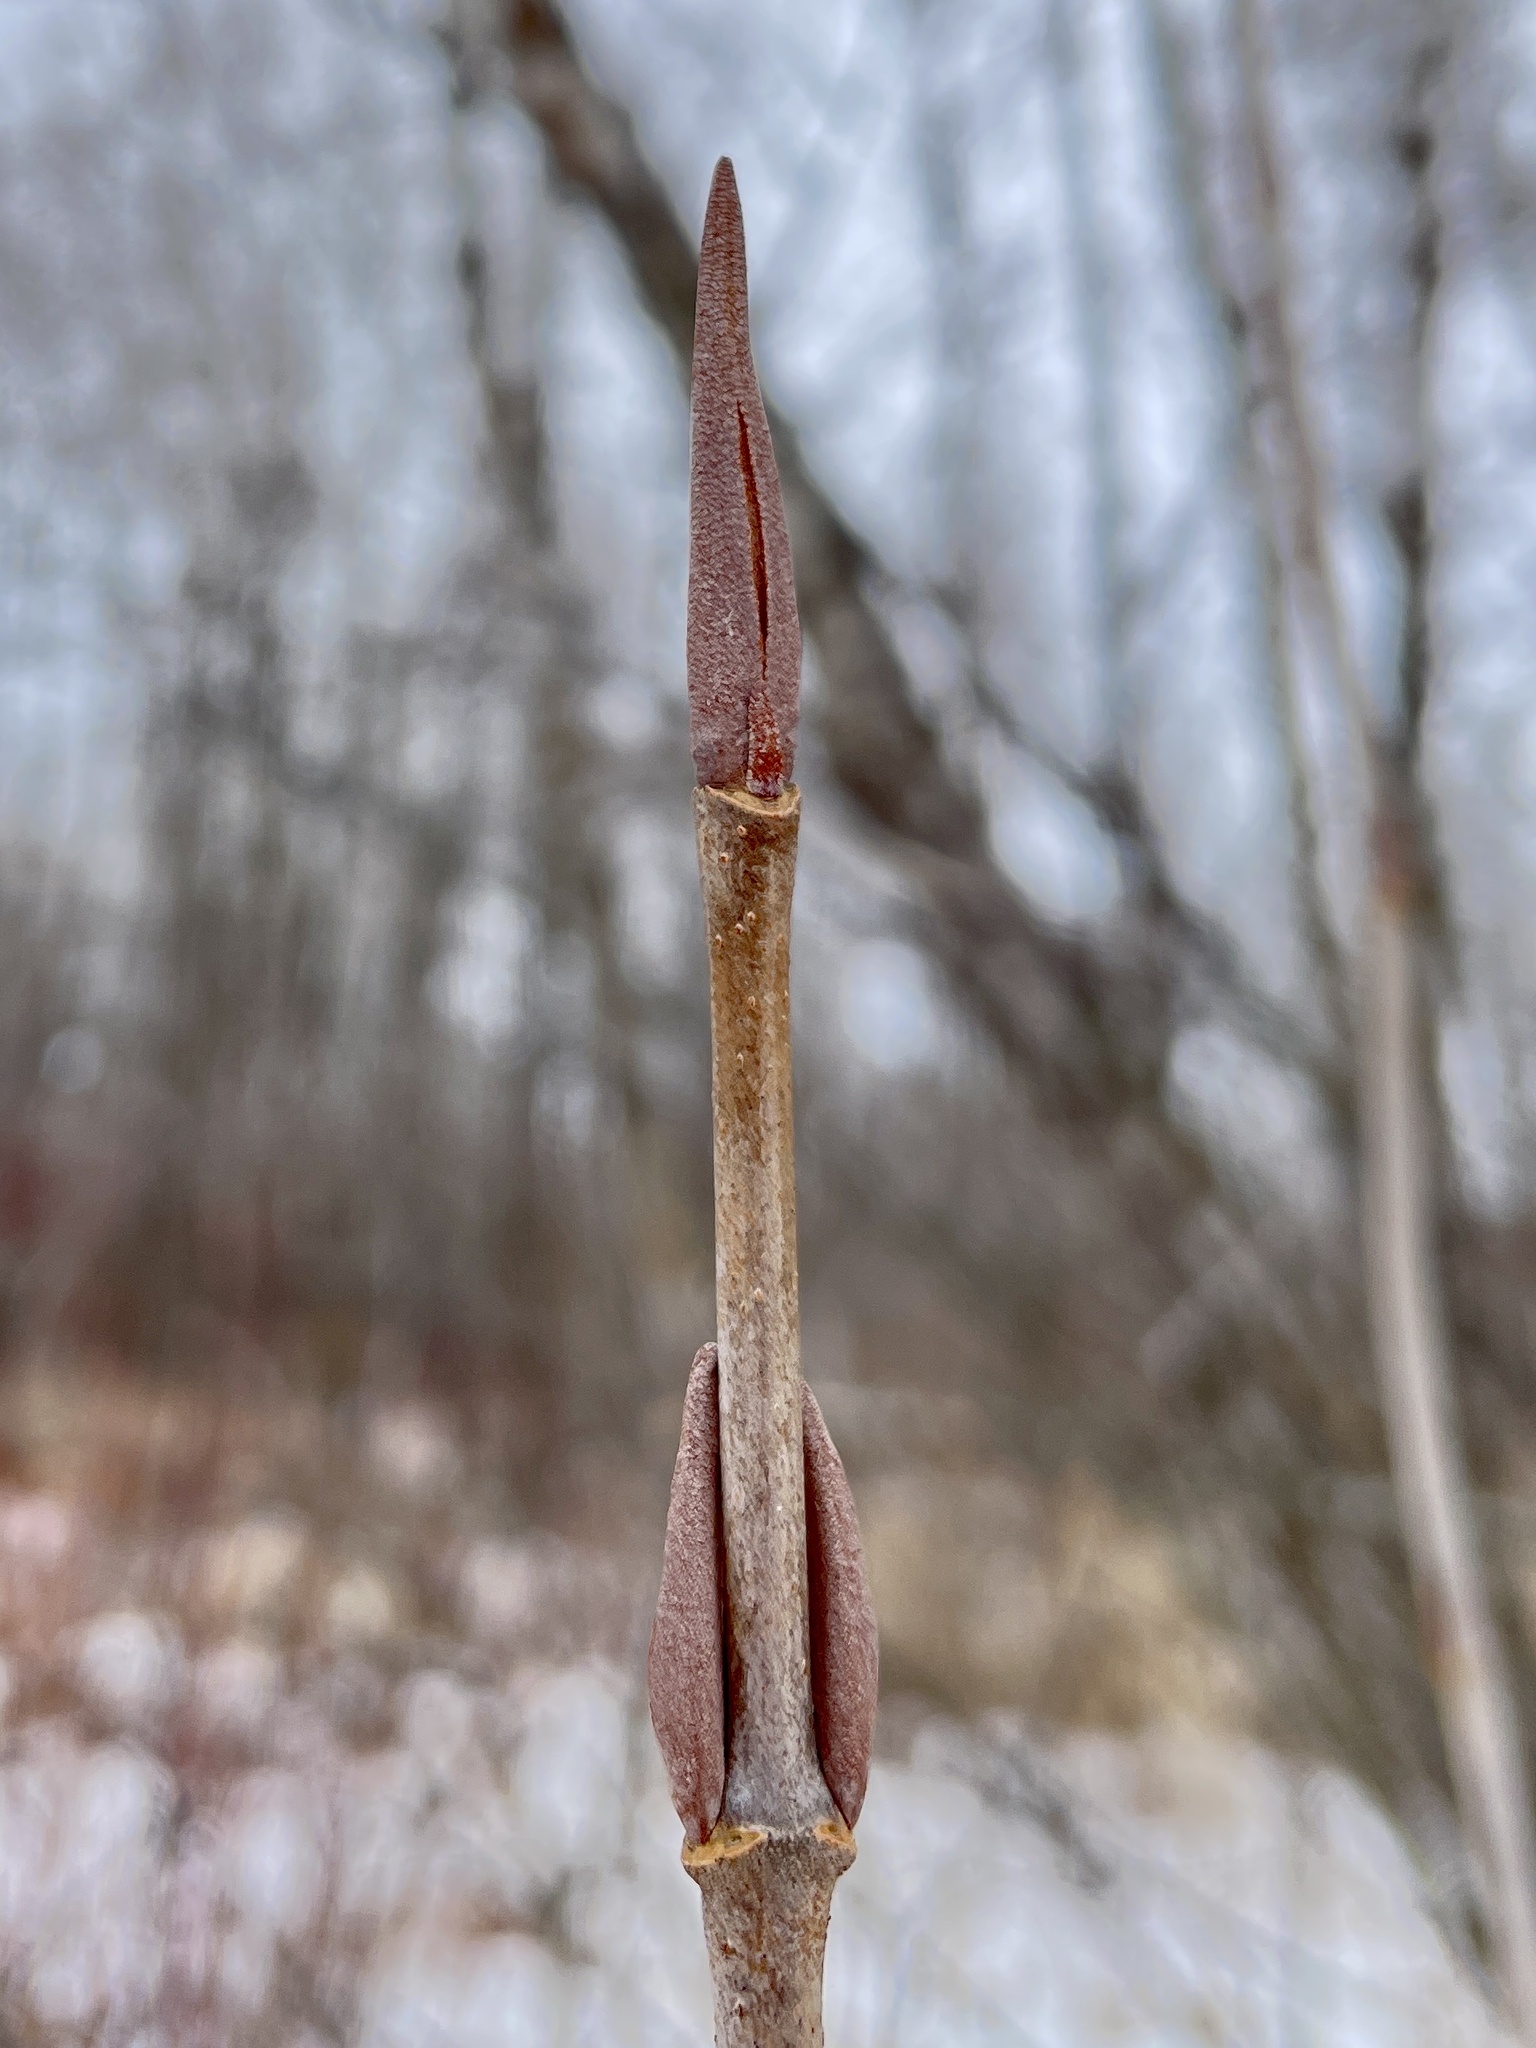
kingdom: Plantae
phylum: Tracheophyta
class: Magnoliopsida
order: Dipsacales
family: Viburnaceae
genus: Viburnum
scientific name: Viburnum lentago
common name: Black haw
